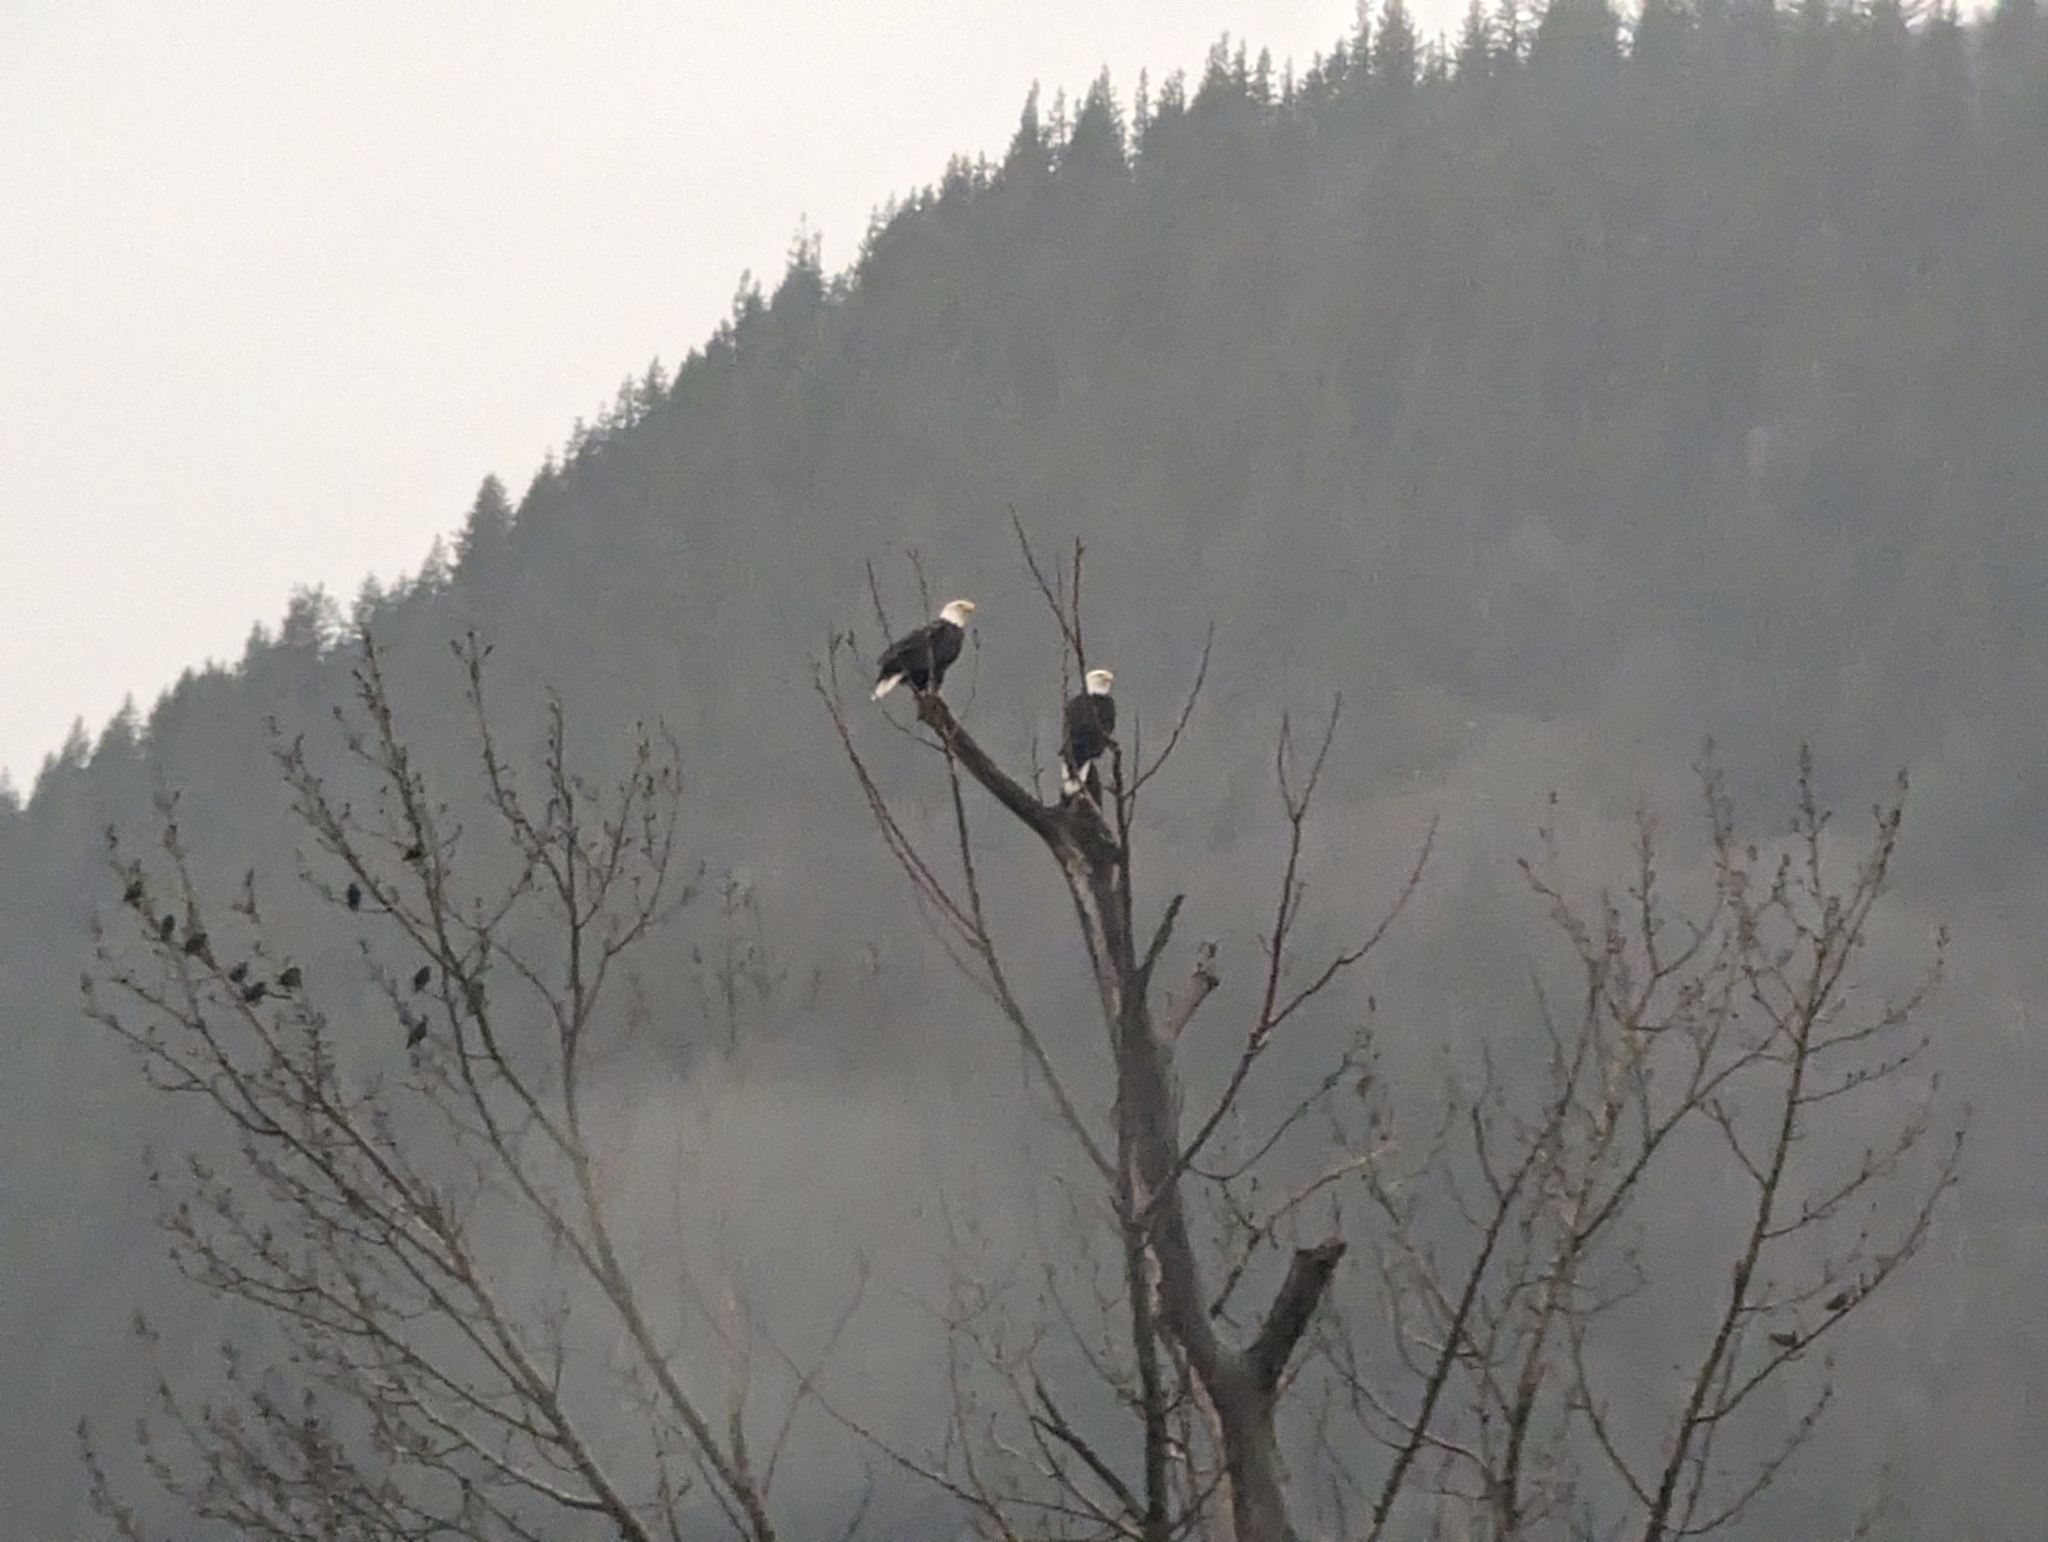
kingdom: Animalia
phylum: Chordata
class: Aves
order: Accipitriformes
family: Accipitridae
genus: Haliaeetus
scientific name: Haliaeetus leucocephalus
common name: Bald eagle
